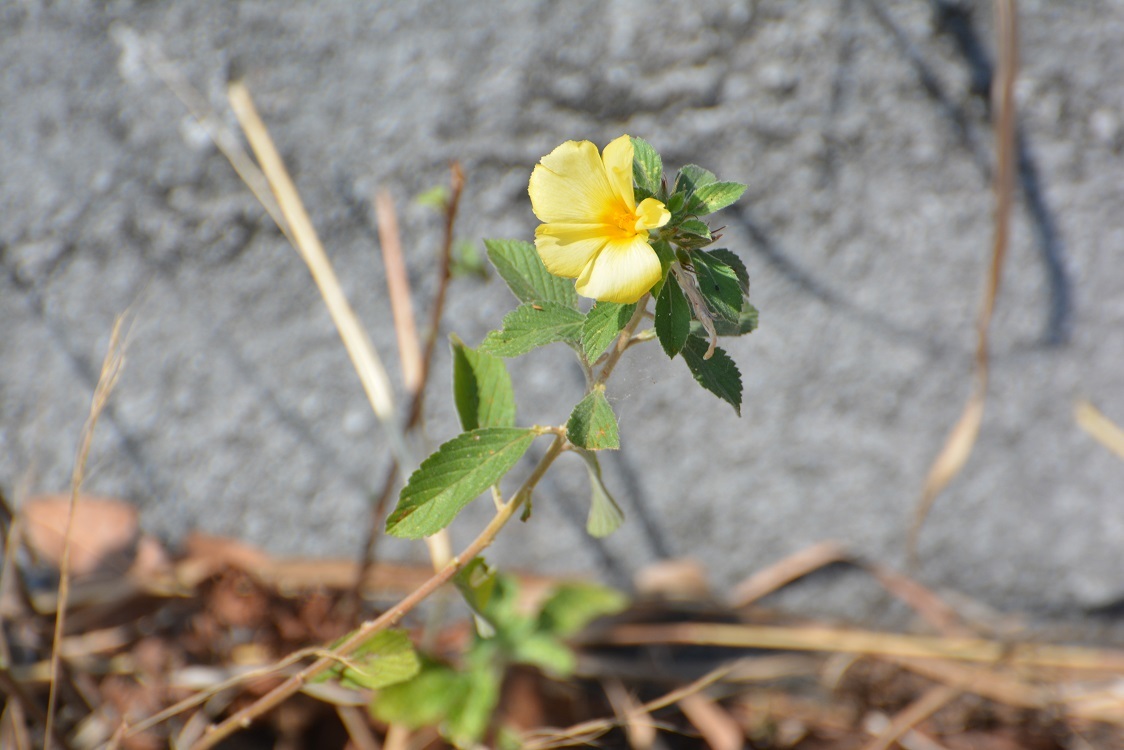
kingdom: Plantae
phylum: Tracheophyta
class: Magnoliopsida
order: Malpighiales
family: Turneraceae
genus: Turnera
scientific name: Turnera ulmifolia
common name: Ramgoat dashalong
